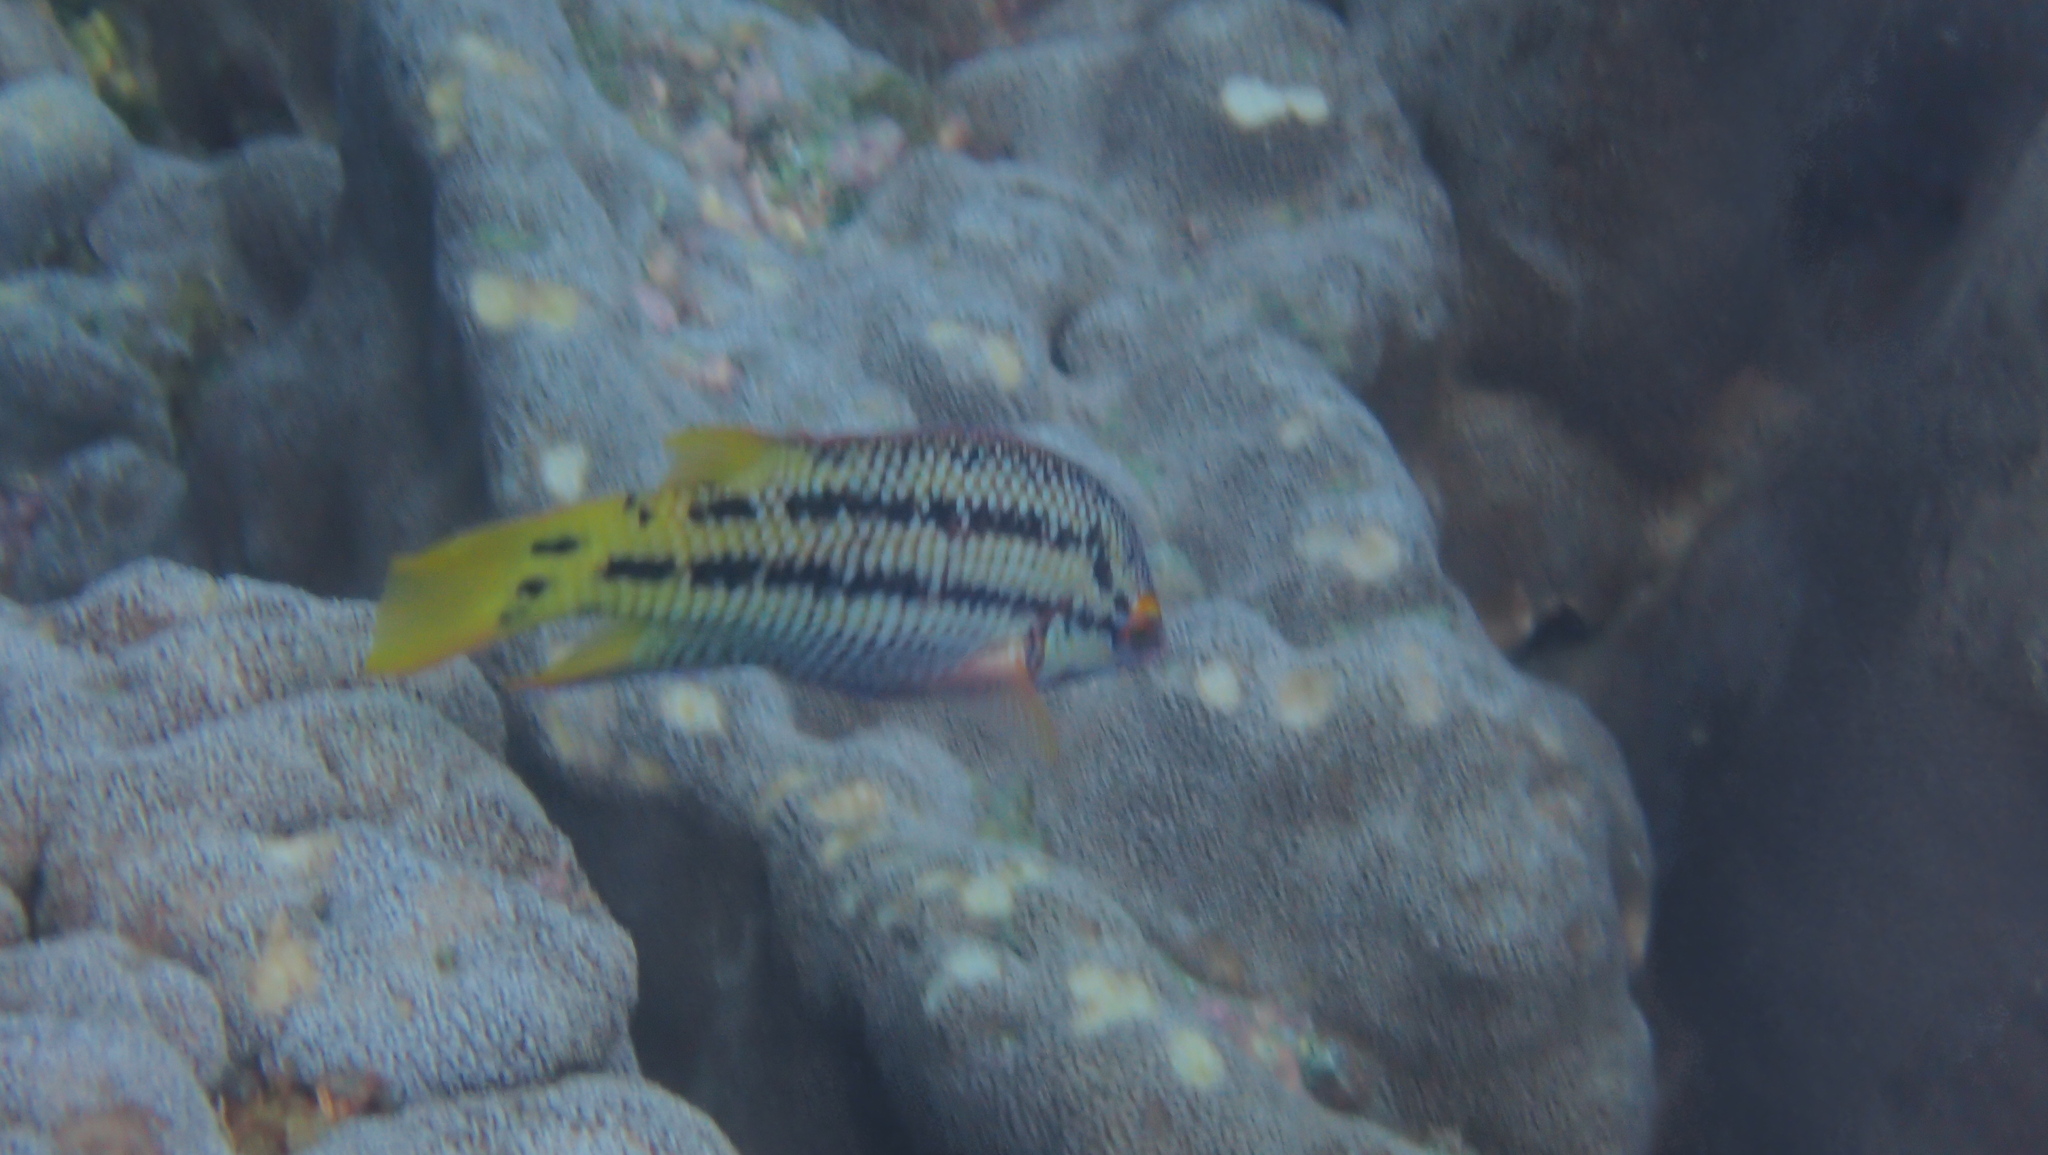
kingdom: Animalia
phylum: Chordata
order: Perciformes
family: Labridae
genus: Bodianus
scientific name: Bodianus diplotaenia
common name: Mexican hogfish
